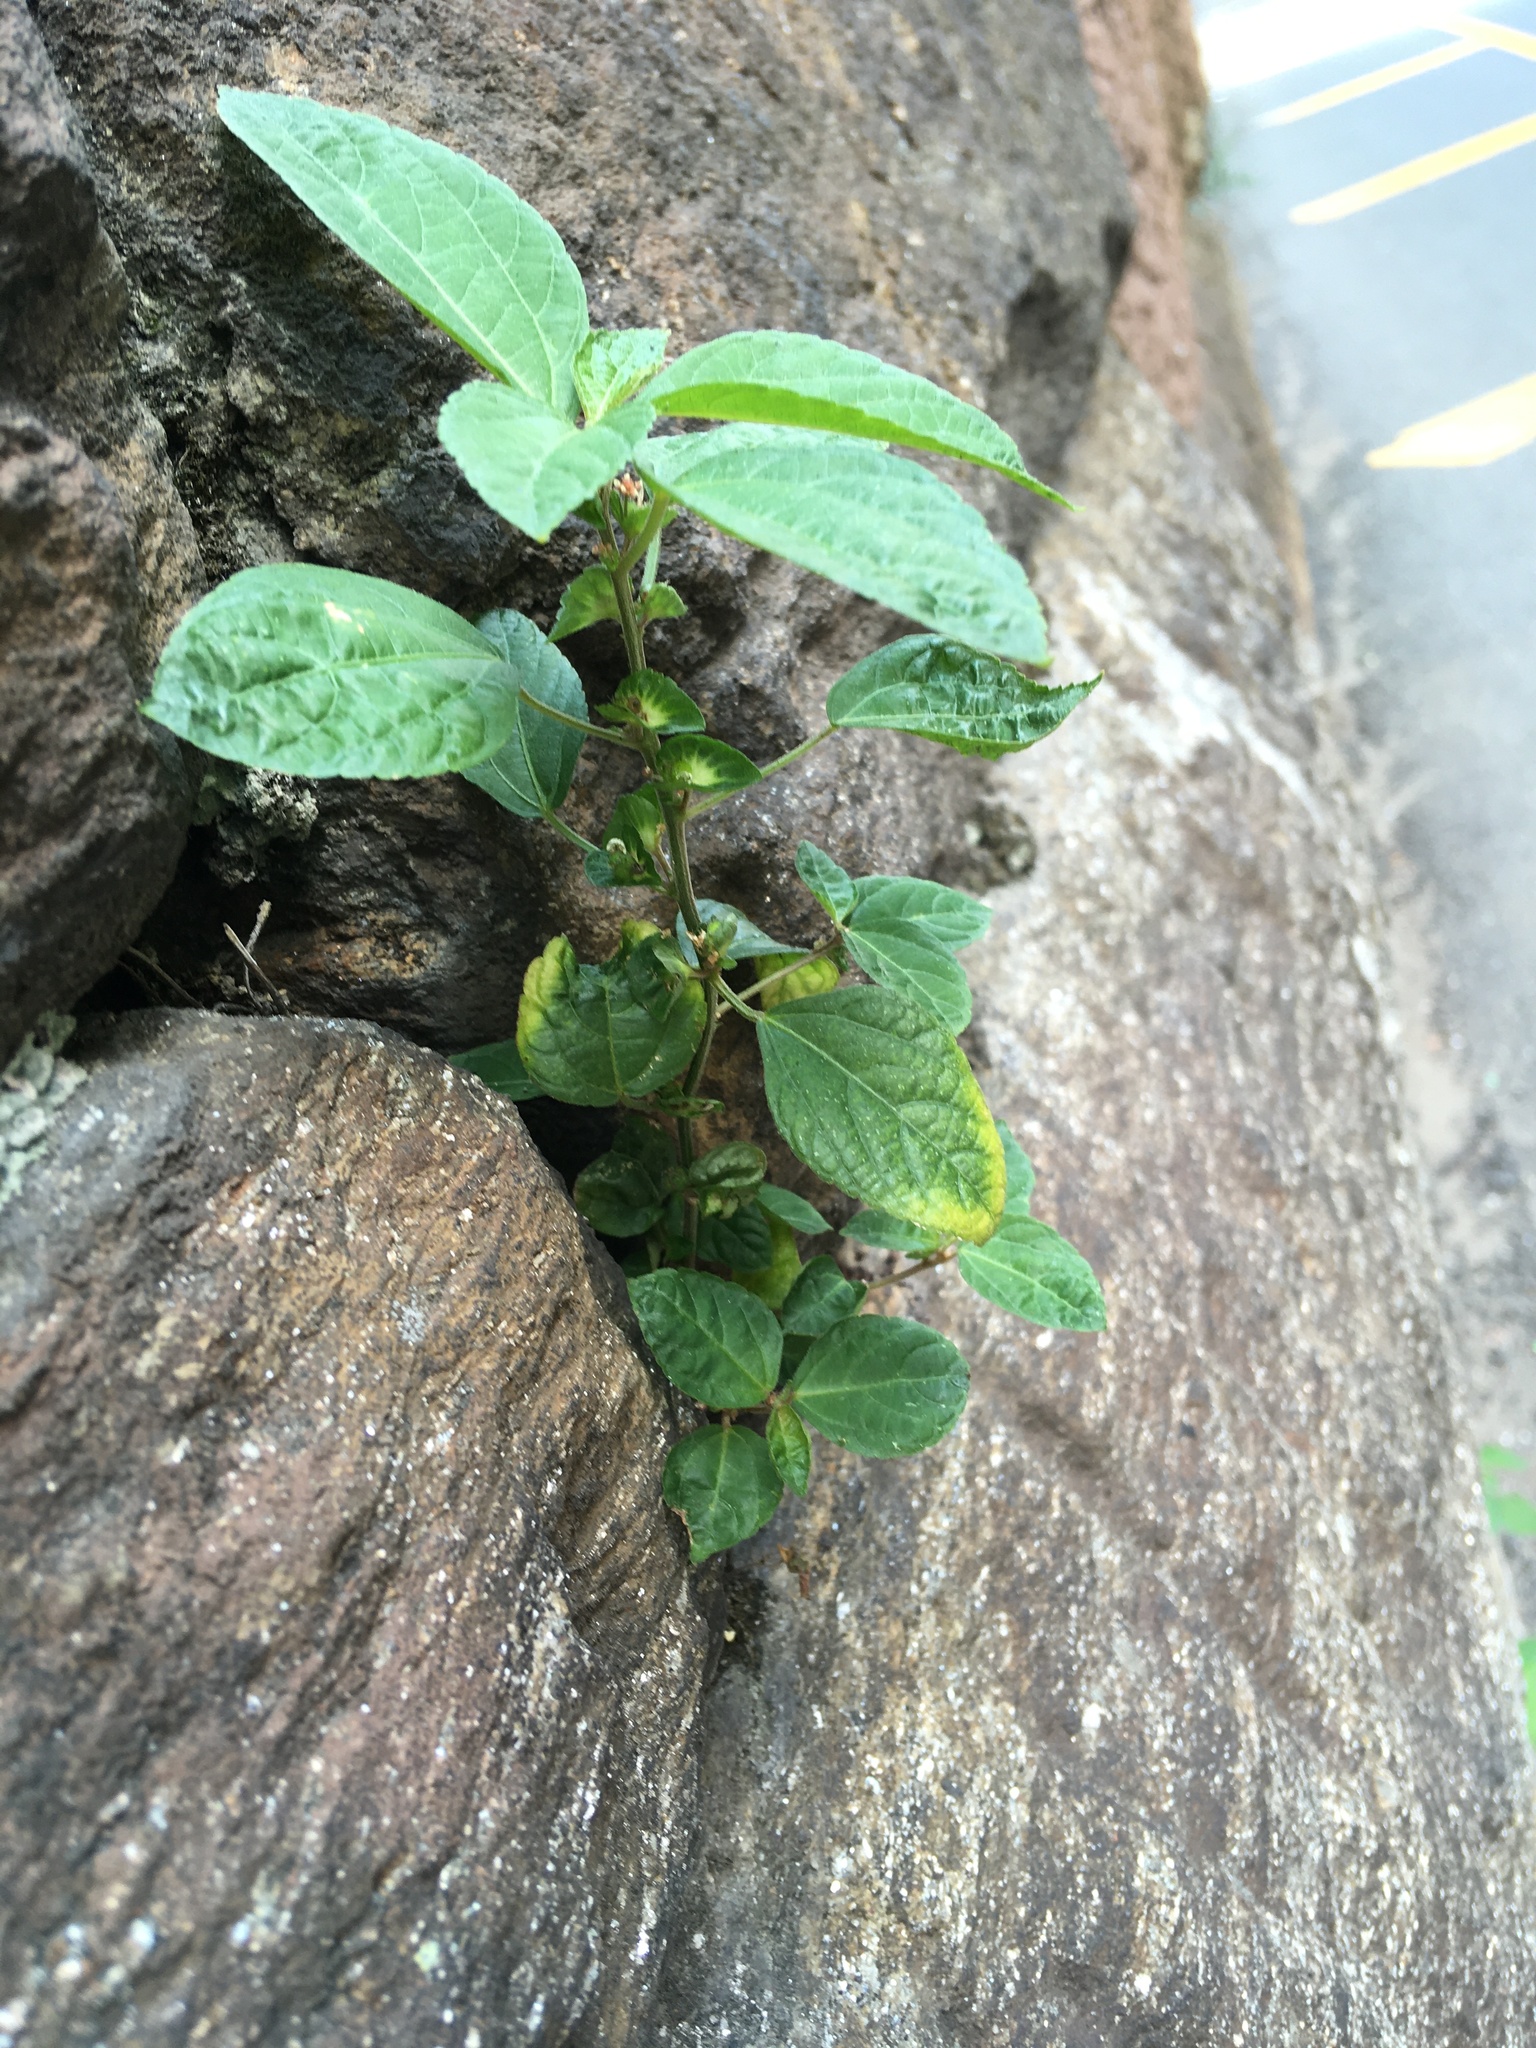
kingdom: Plantae
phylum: Tracheophyta
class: Magnoliopsida
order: Malpighiales
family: Euphorbiaceae
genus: Acalypha
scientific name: Acalypha australis
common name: Asian copperleaf
